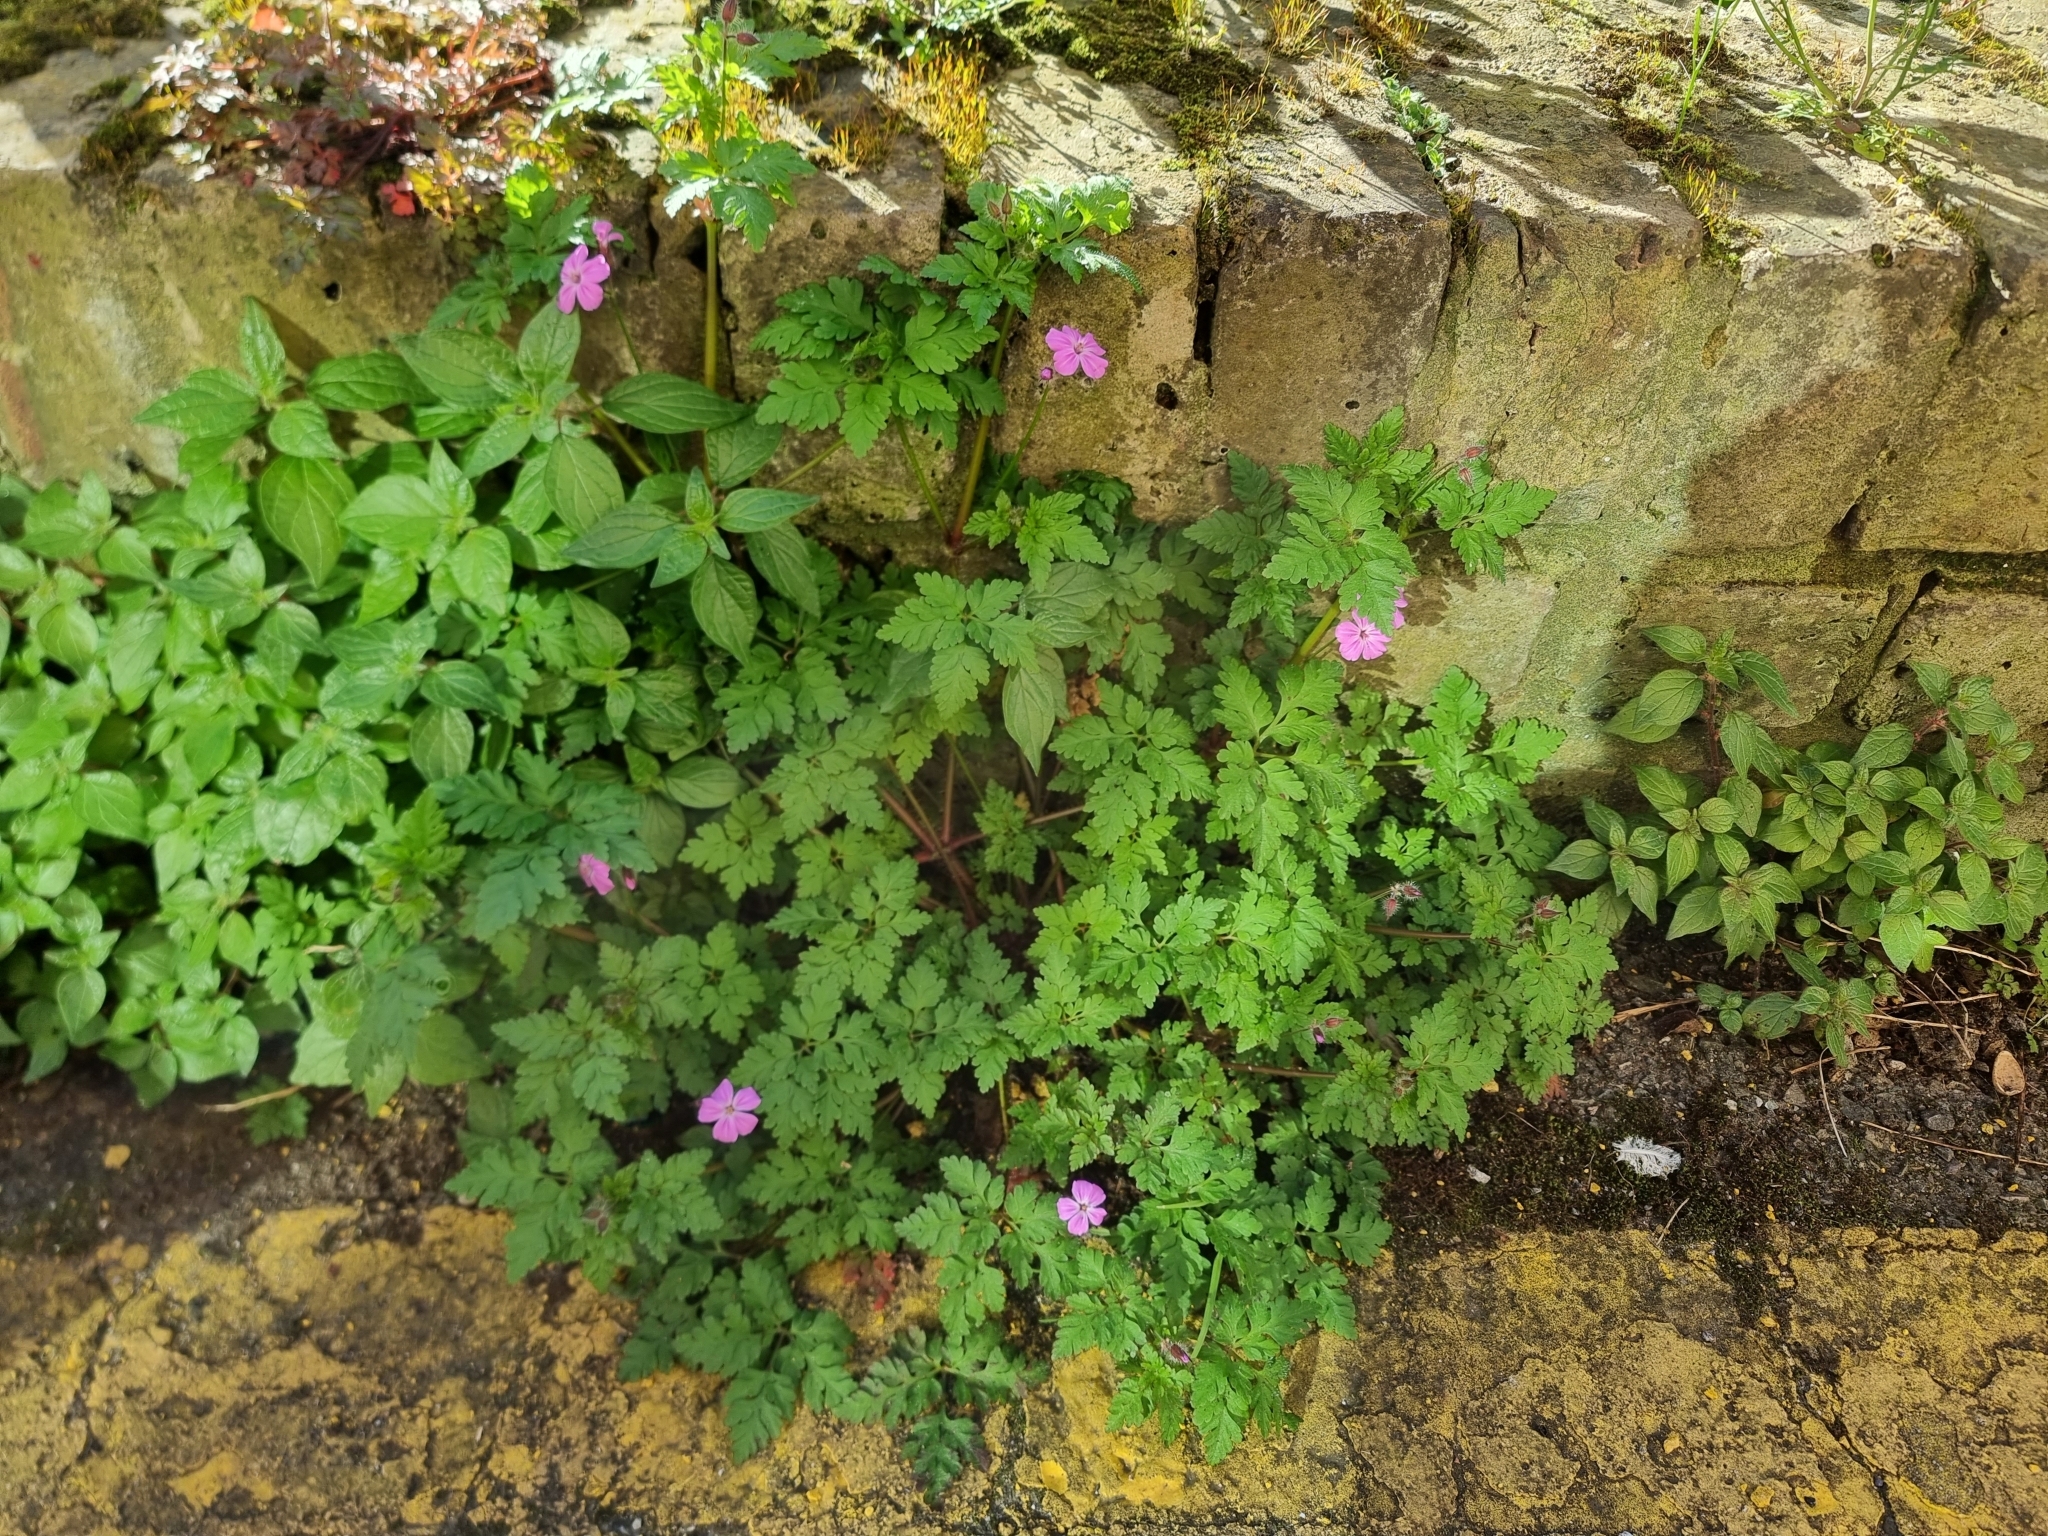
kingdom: Plantae
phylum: Tracheophyta
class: Magnoliopsida
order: Geraniales
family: Geraniaceae
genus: Geranium
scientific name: Geranium robertianum
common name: Herb-robert
